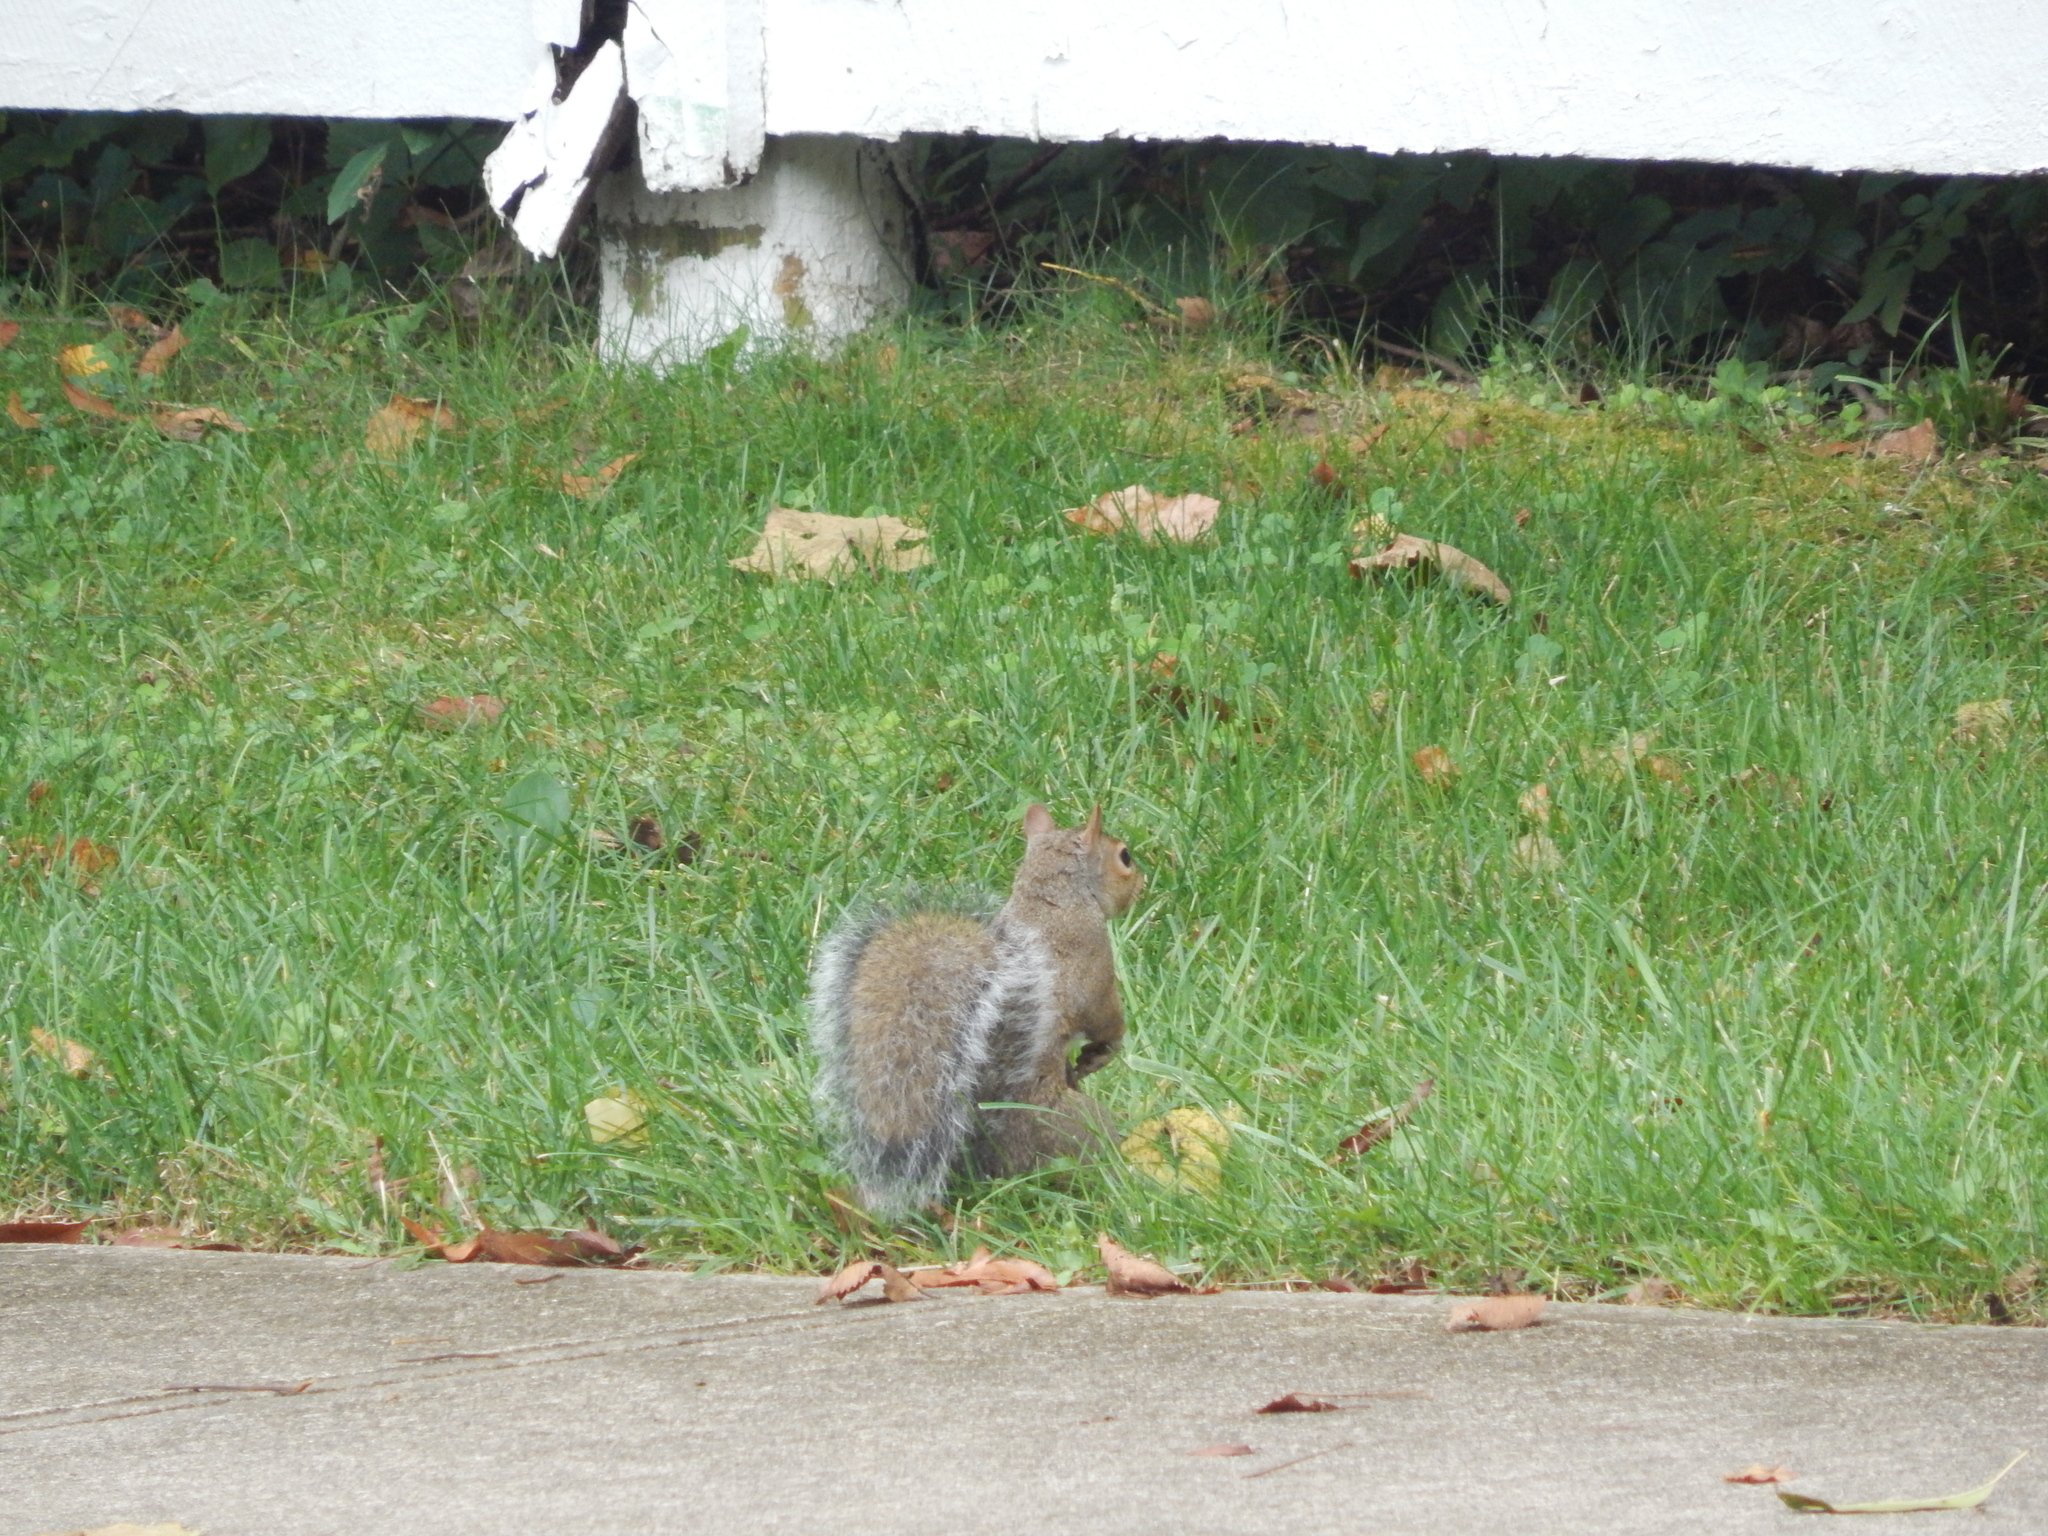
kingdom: Animalia
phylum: Chordata
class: Mammalia
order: Rodentia
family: Sciuridae
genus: Sciurus
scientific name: Sciurus carolinensis
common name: Eastern gray squirrel
